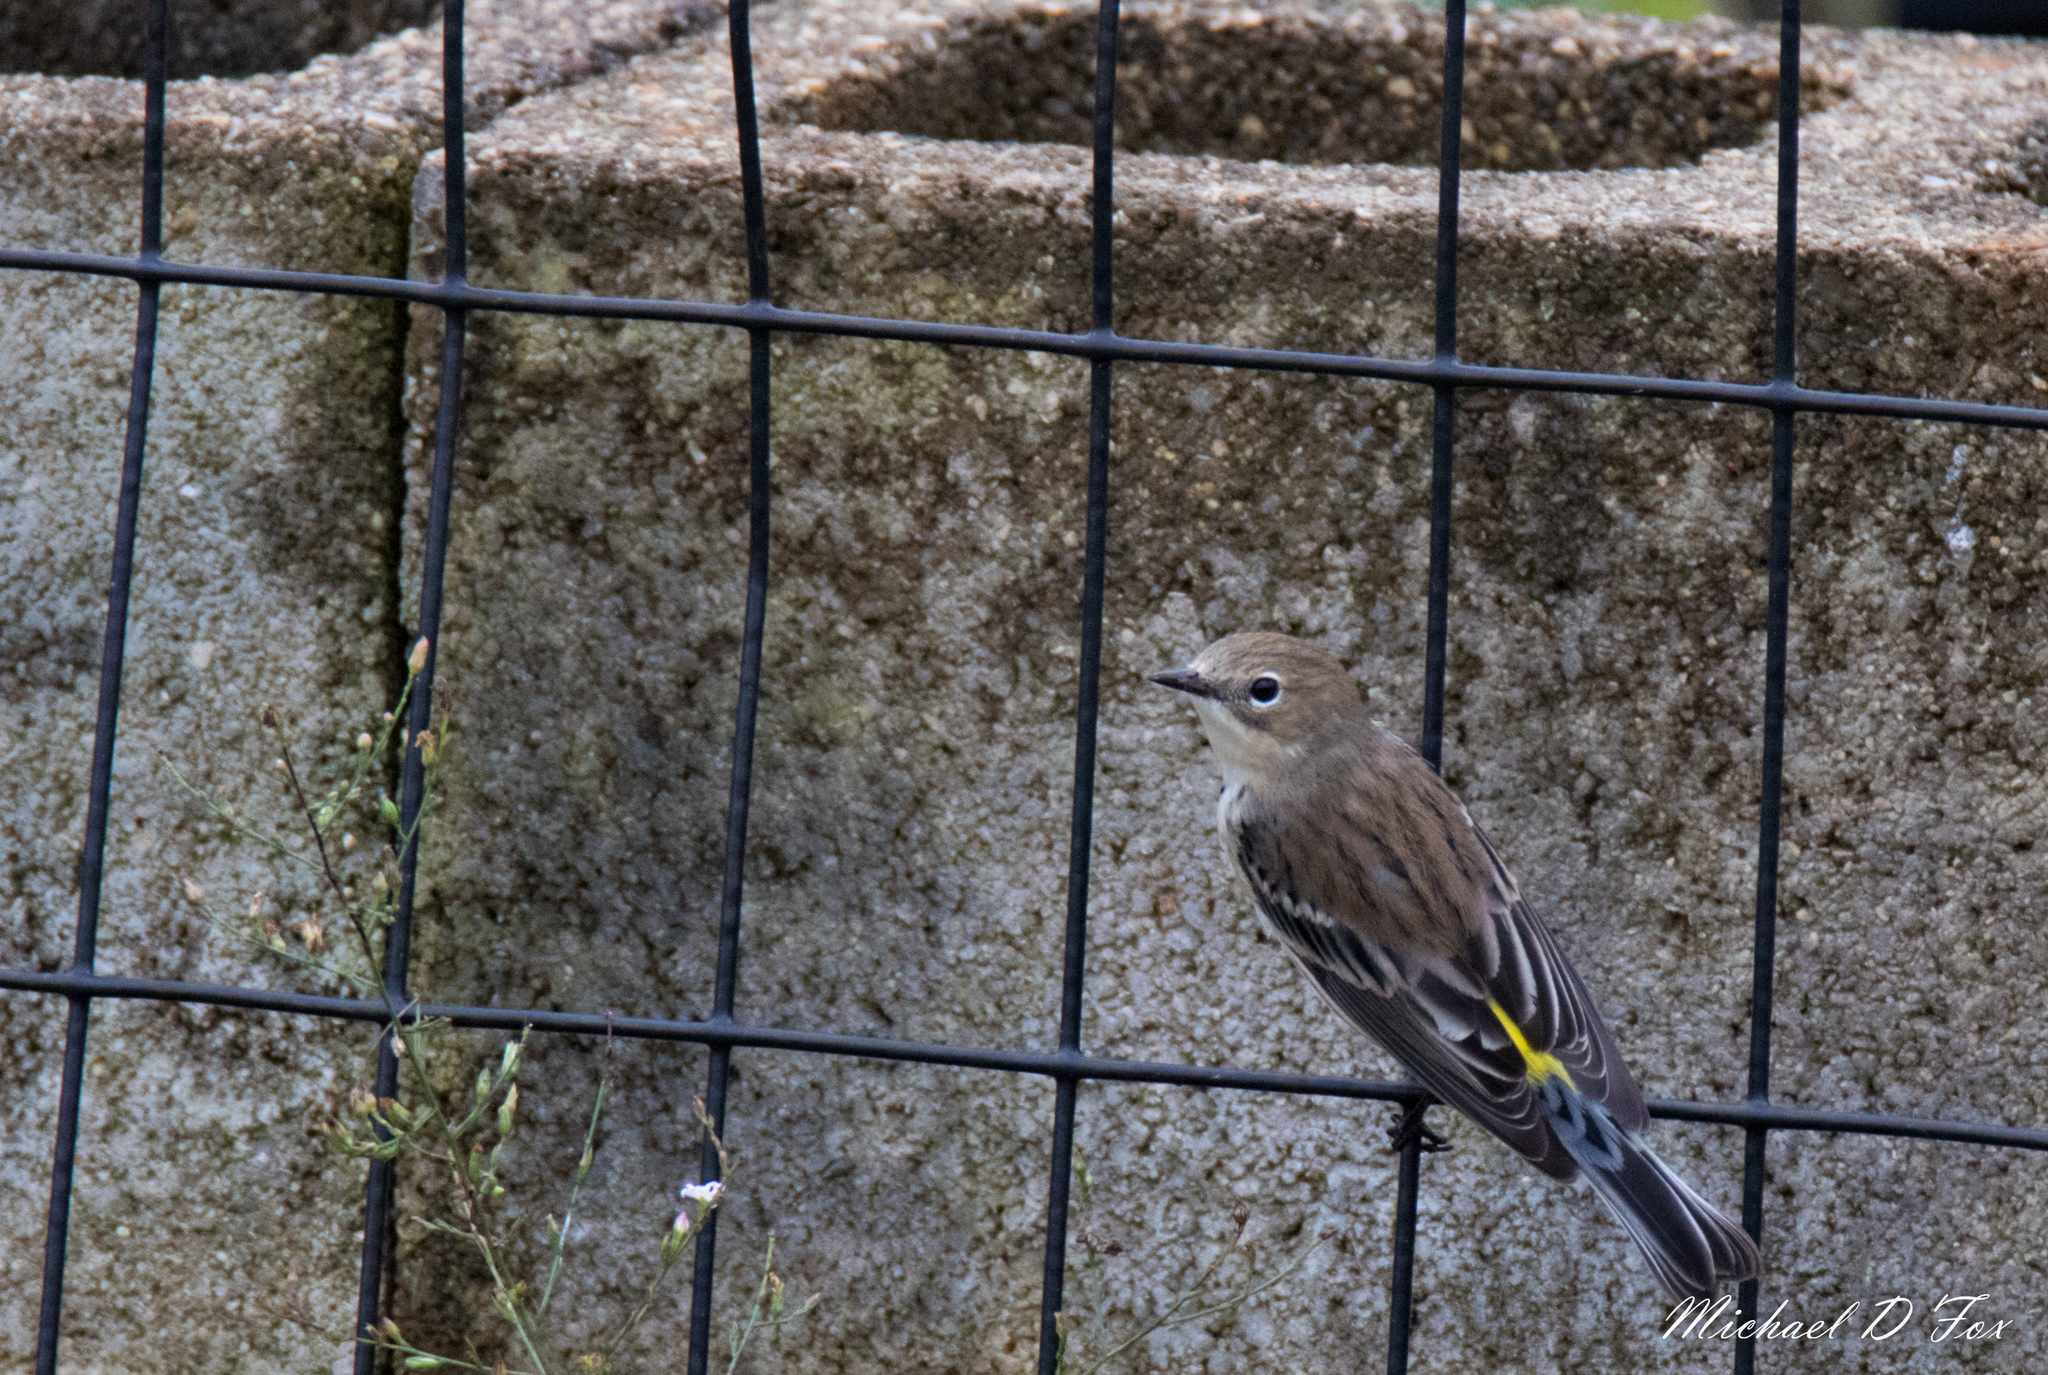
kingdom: Animalia
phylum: Chordata
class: Aves
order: Passeriformes
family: Parulidae
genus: Setophaga
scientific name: Setophaga coronata
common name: Myrtle warbler
